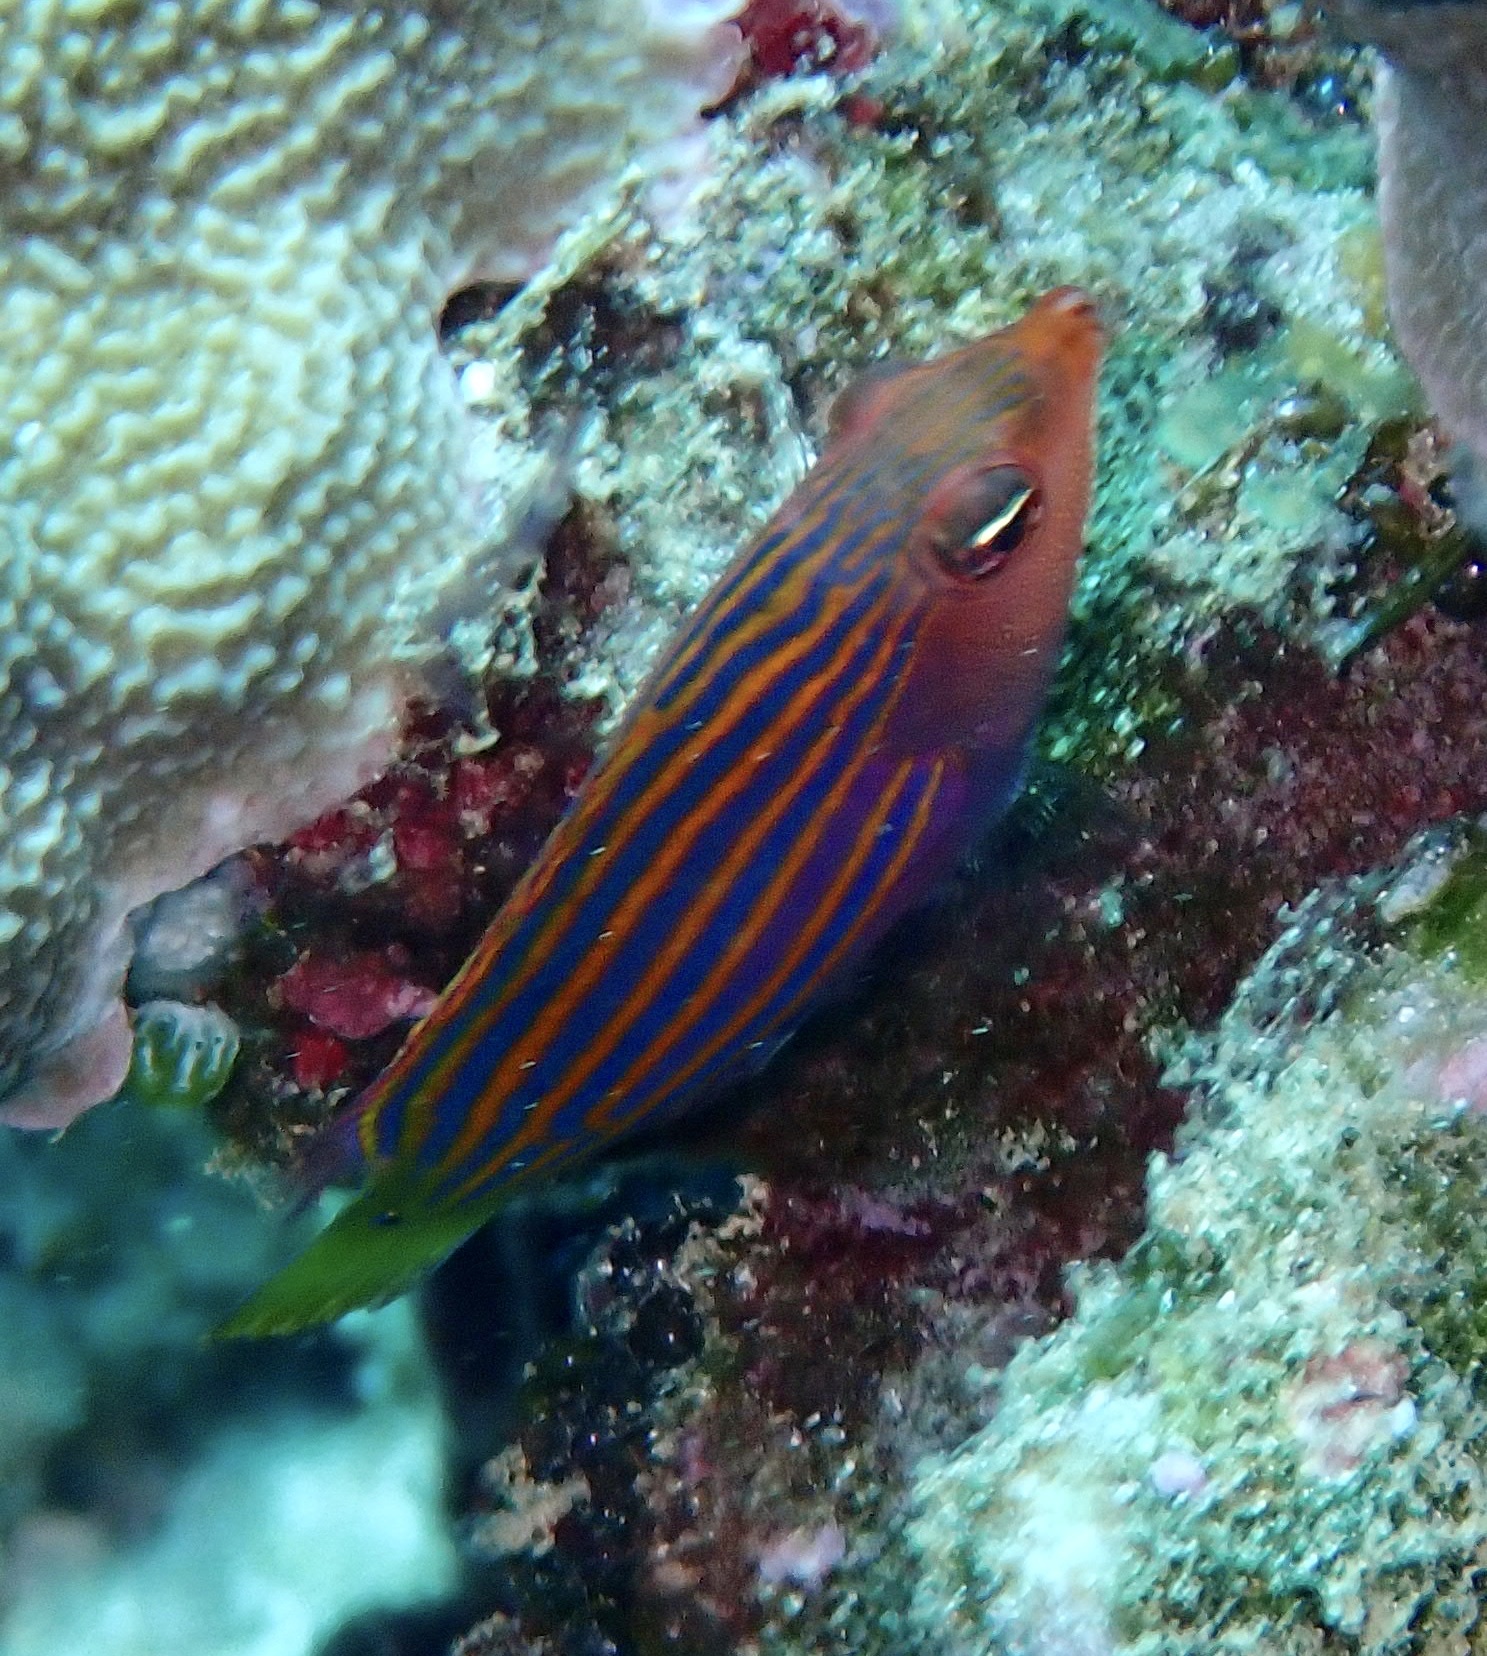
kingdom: Animalia
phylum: Chordata
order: Perciformes
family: Labridae
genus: Pseudocheilinus
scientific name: Pseudocheilinus hexataenia
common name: Sixline wrasse
